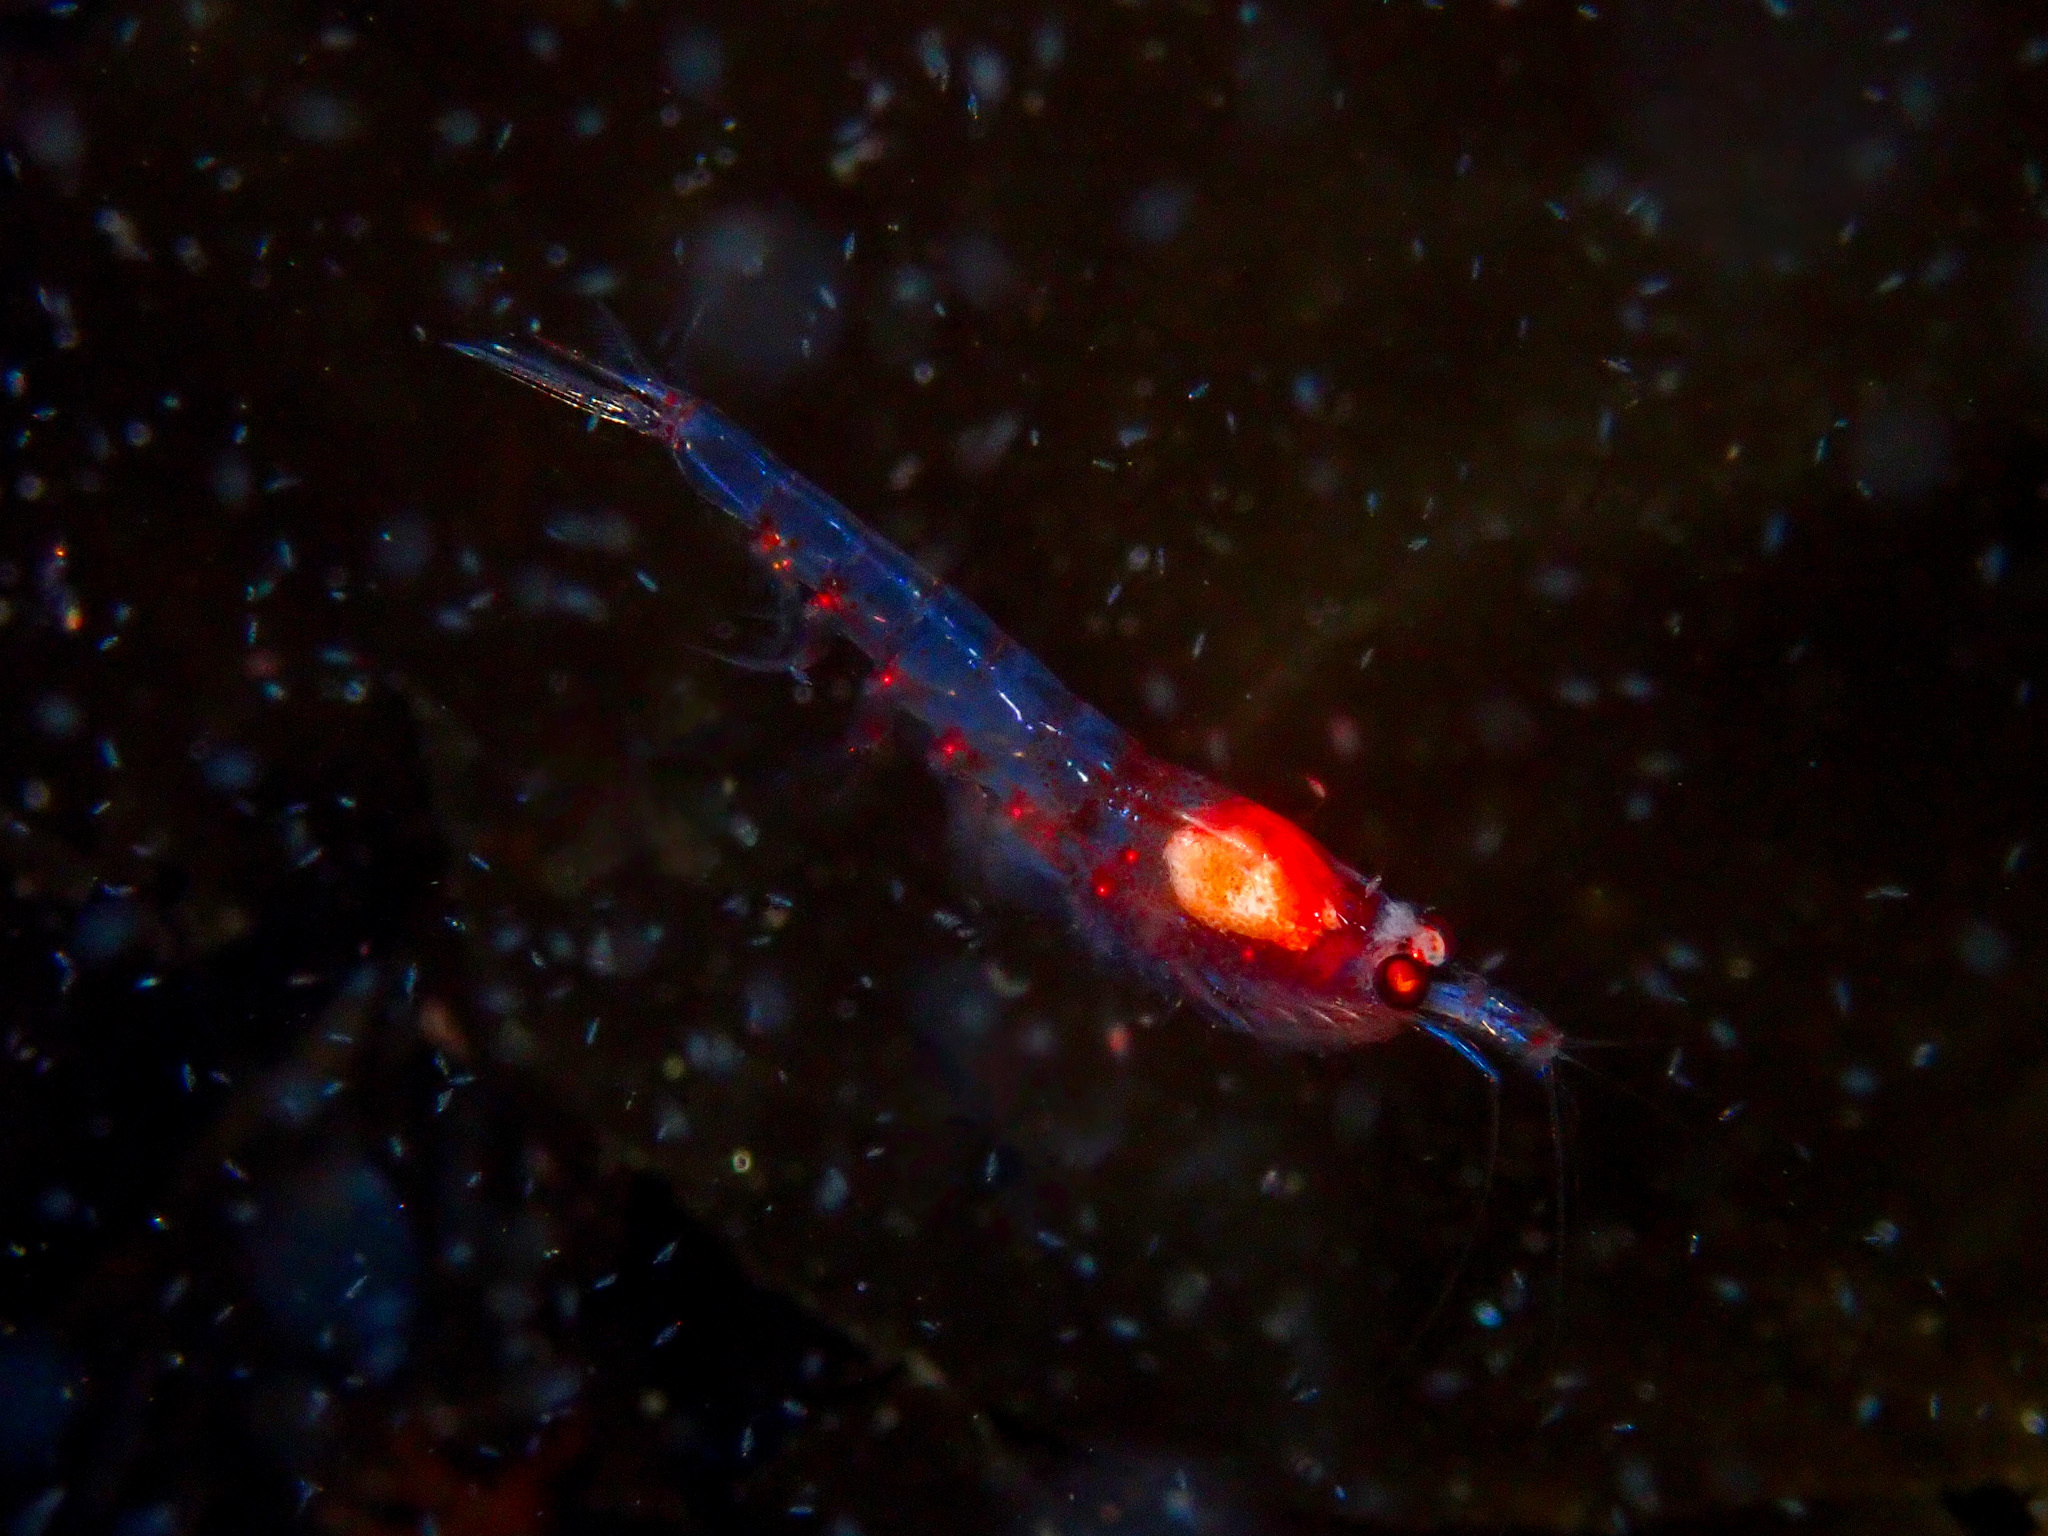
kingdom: Animalia
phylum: Arthropoda
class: Malacostraca
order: Euphausiacea
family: Euphausiidae
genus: Meganyctiphanes
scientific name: Meganyctiphanes norvegica
